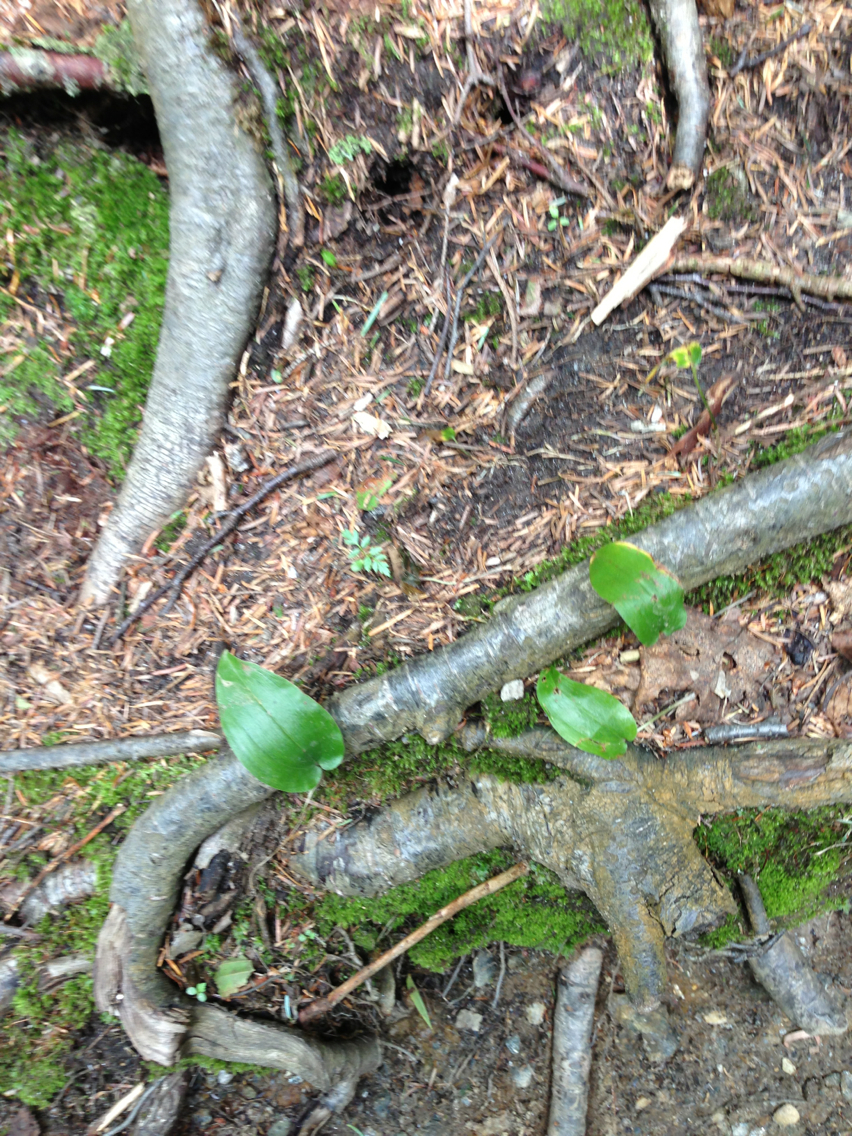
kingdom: Plantae
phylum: Tracheophyta
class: Liliopsida
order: Asparagales
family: Asparagaceae
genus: Maianthemum
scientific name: Maianthemum canadense
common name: False lily-of-the-valley
